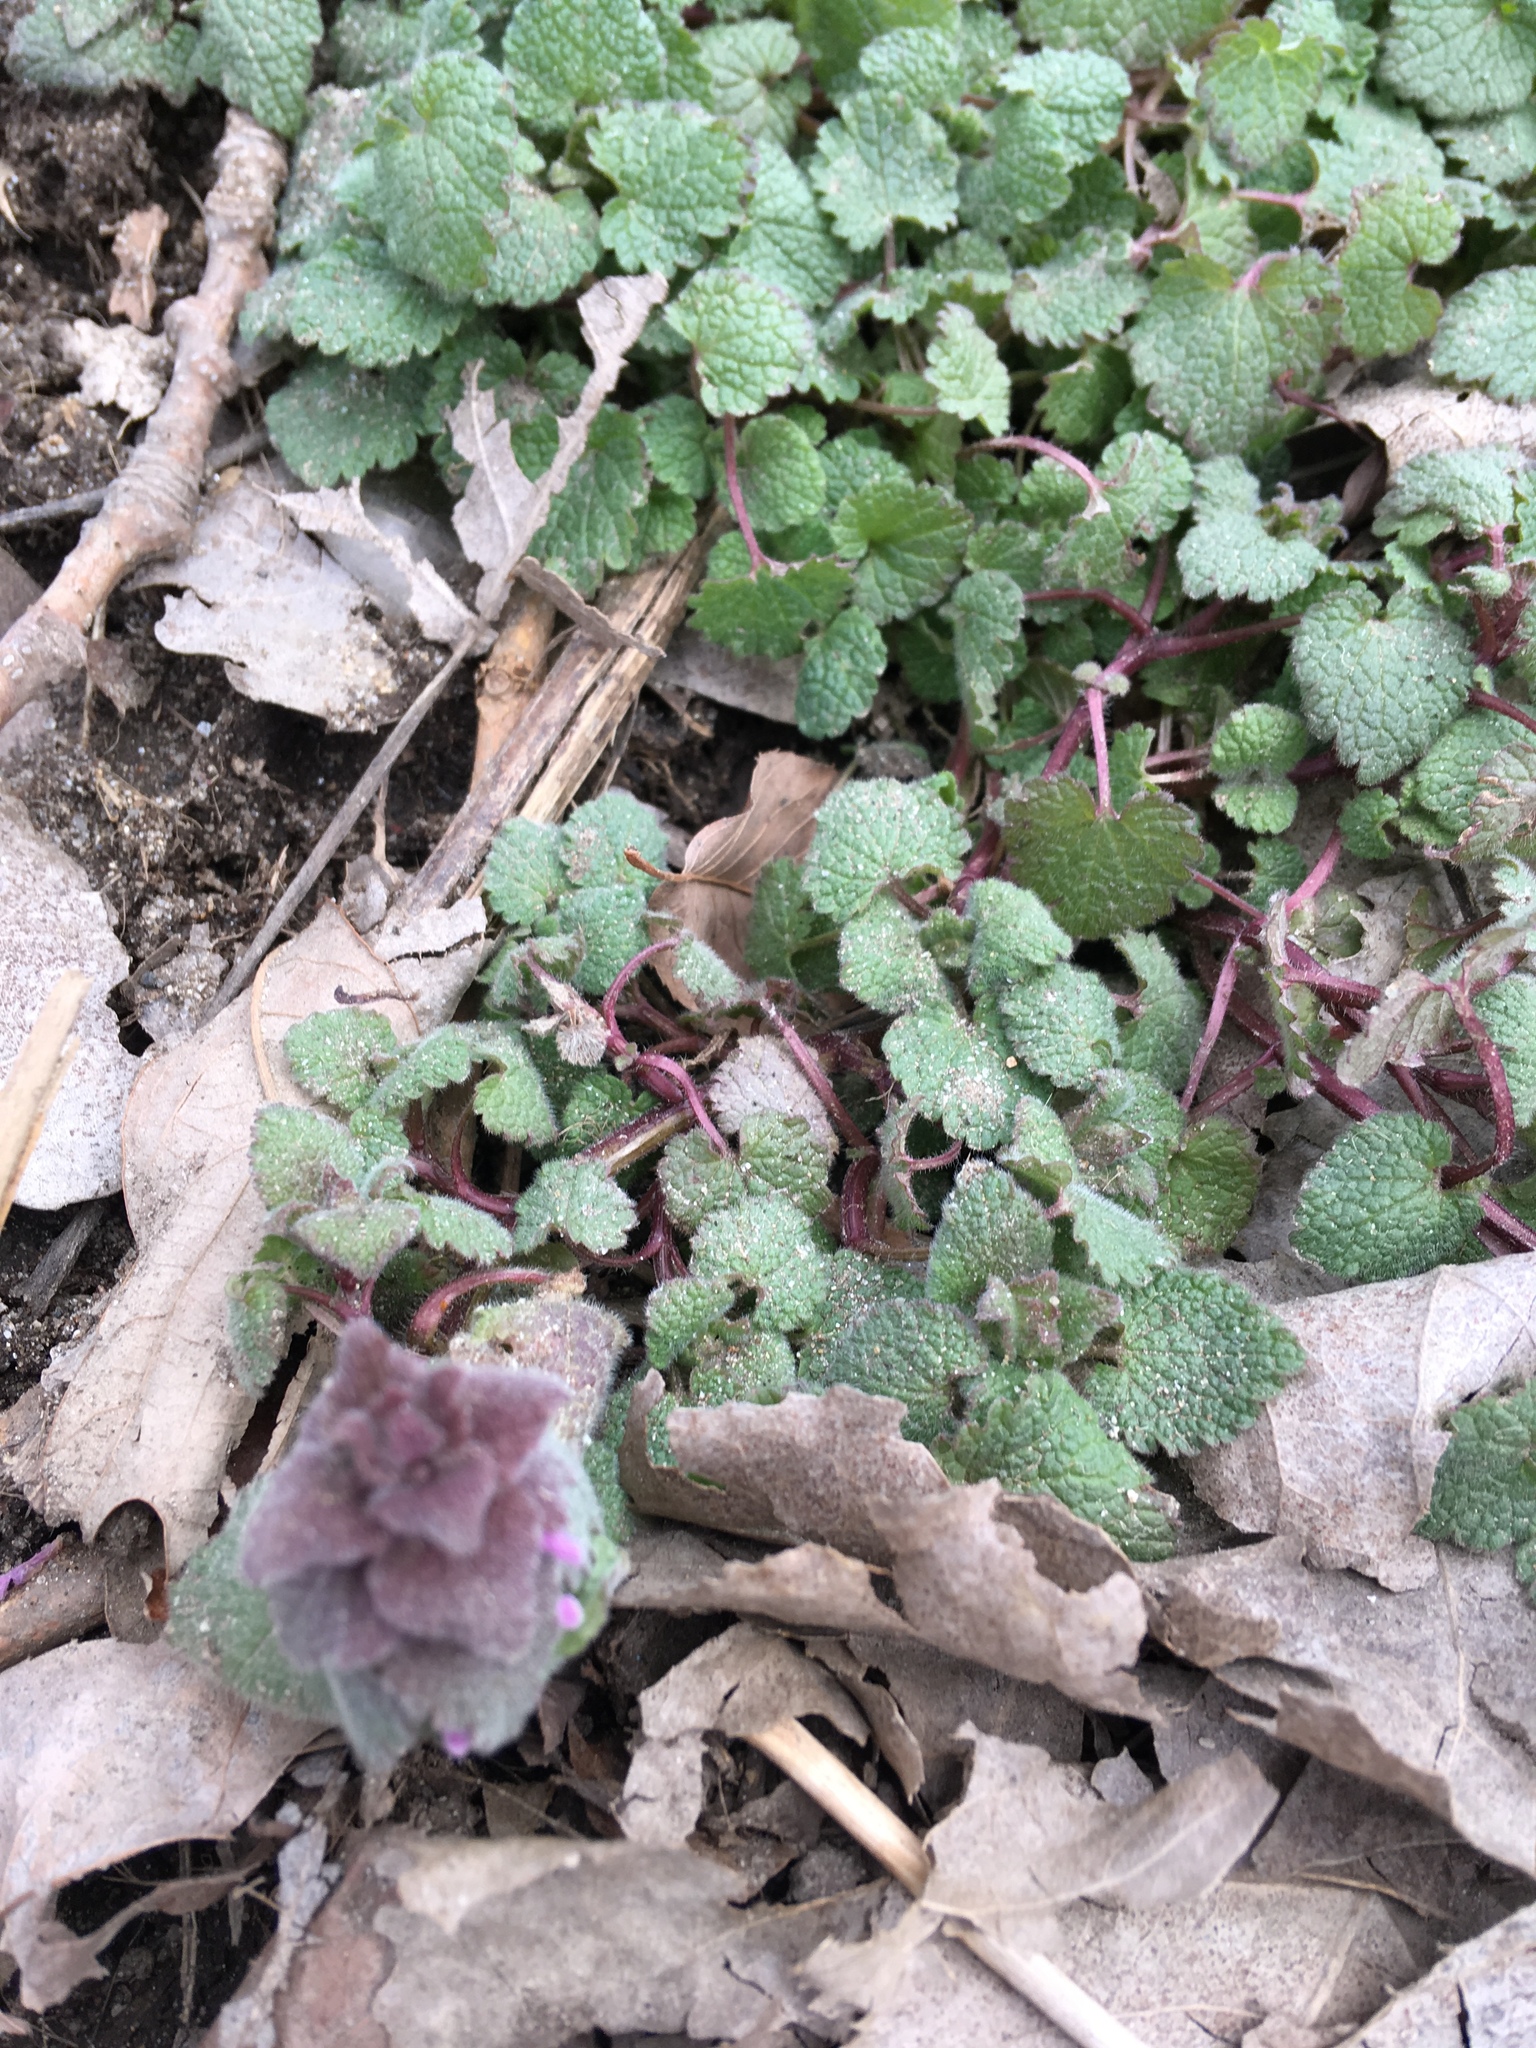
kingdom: Plantae
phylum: Tracheophyta
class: Magnoliopsida
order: Lamiales
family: Lamiaceae
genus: Lamium
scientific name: Lamium purpureum
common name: Red dead-nettle
